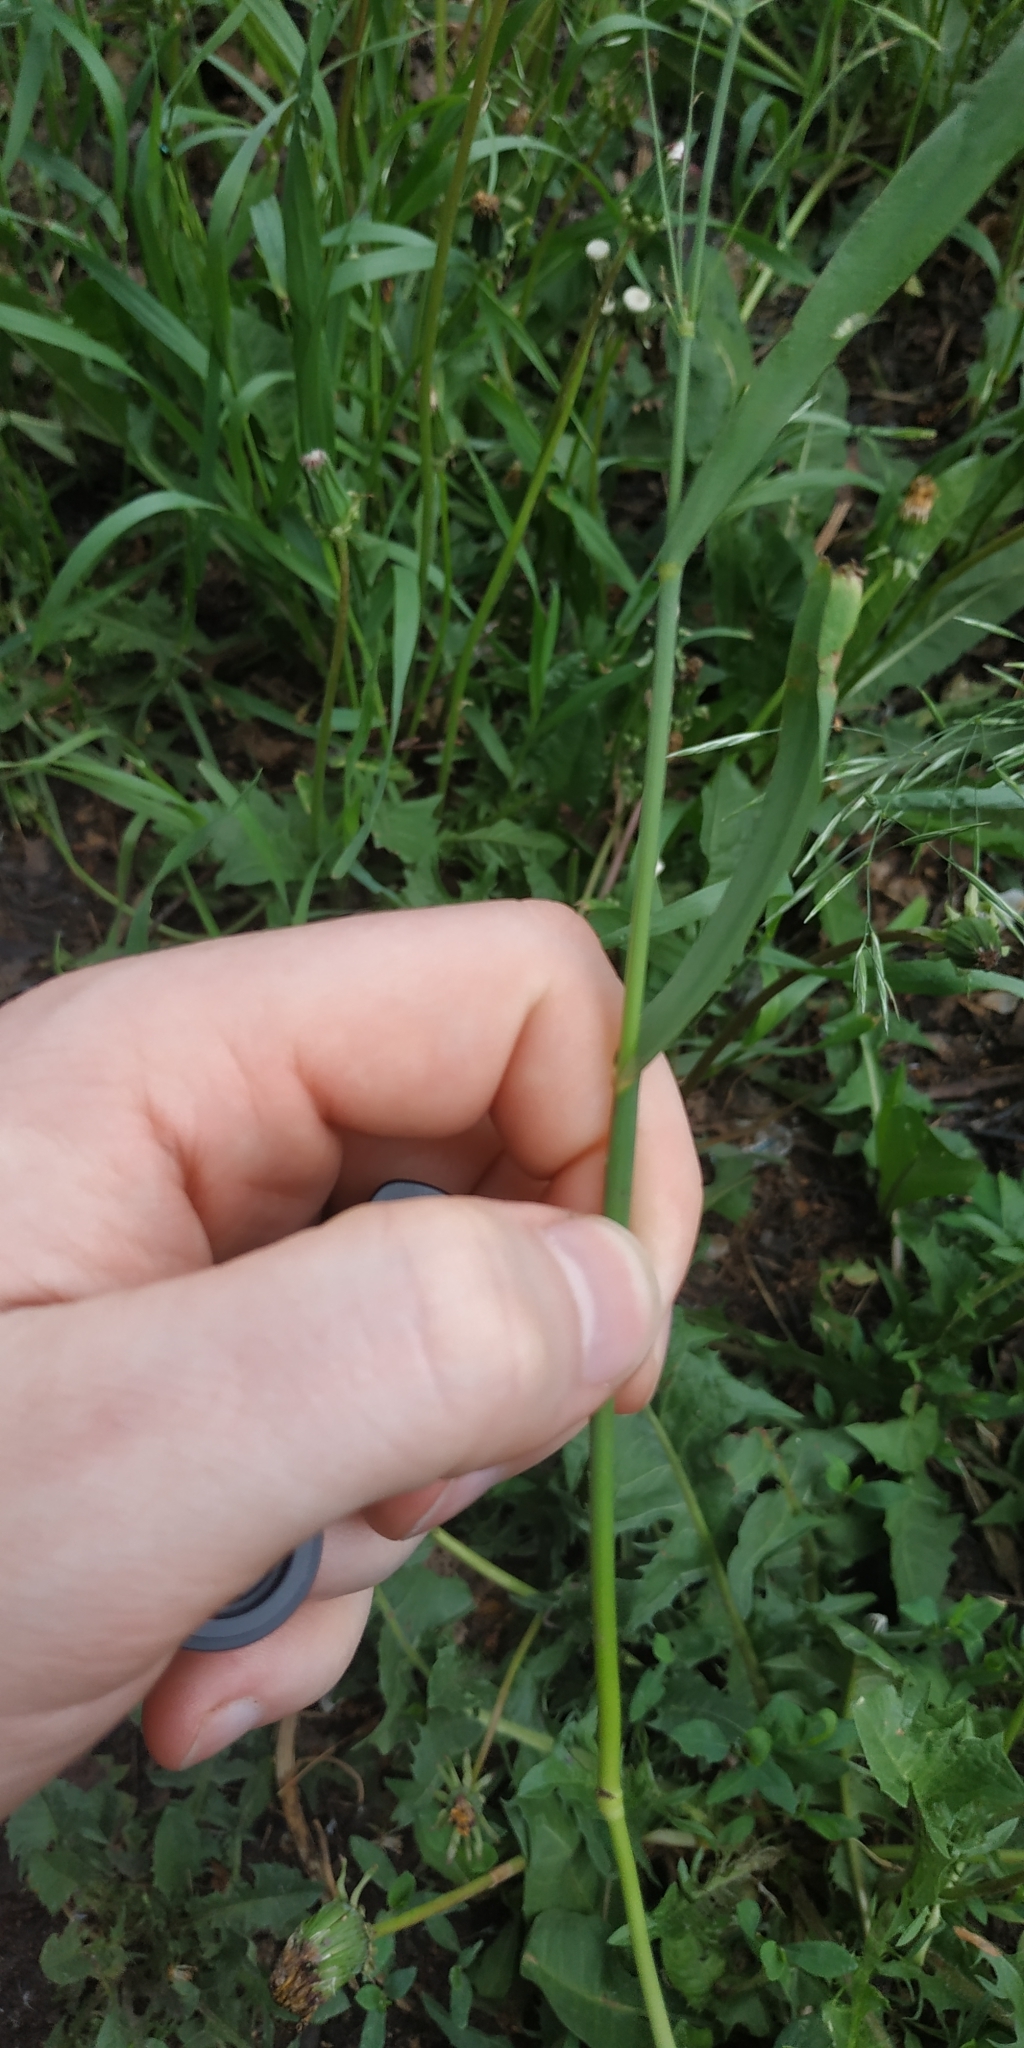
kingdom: Plantae
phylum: Tracheophyta
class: Liliopsida
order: Poales
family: Poaceae
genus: Bromus
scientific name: Bromus inermis
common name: Smooth brome
